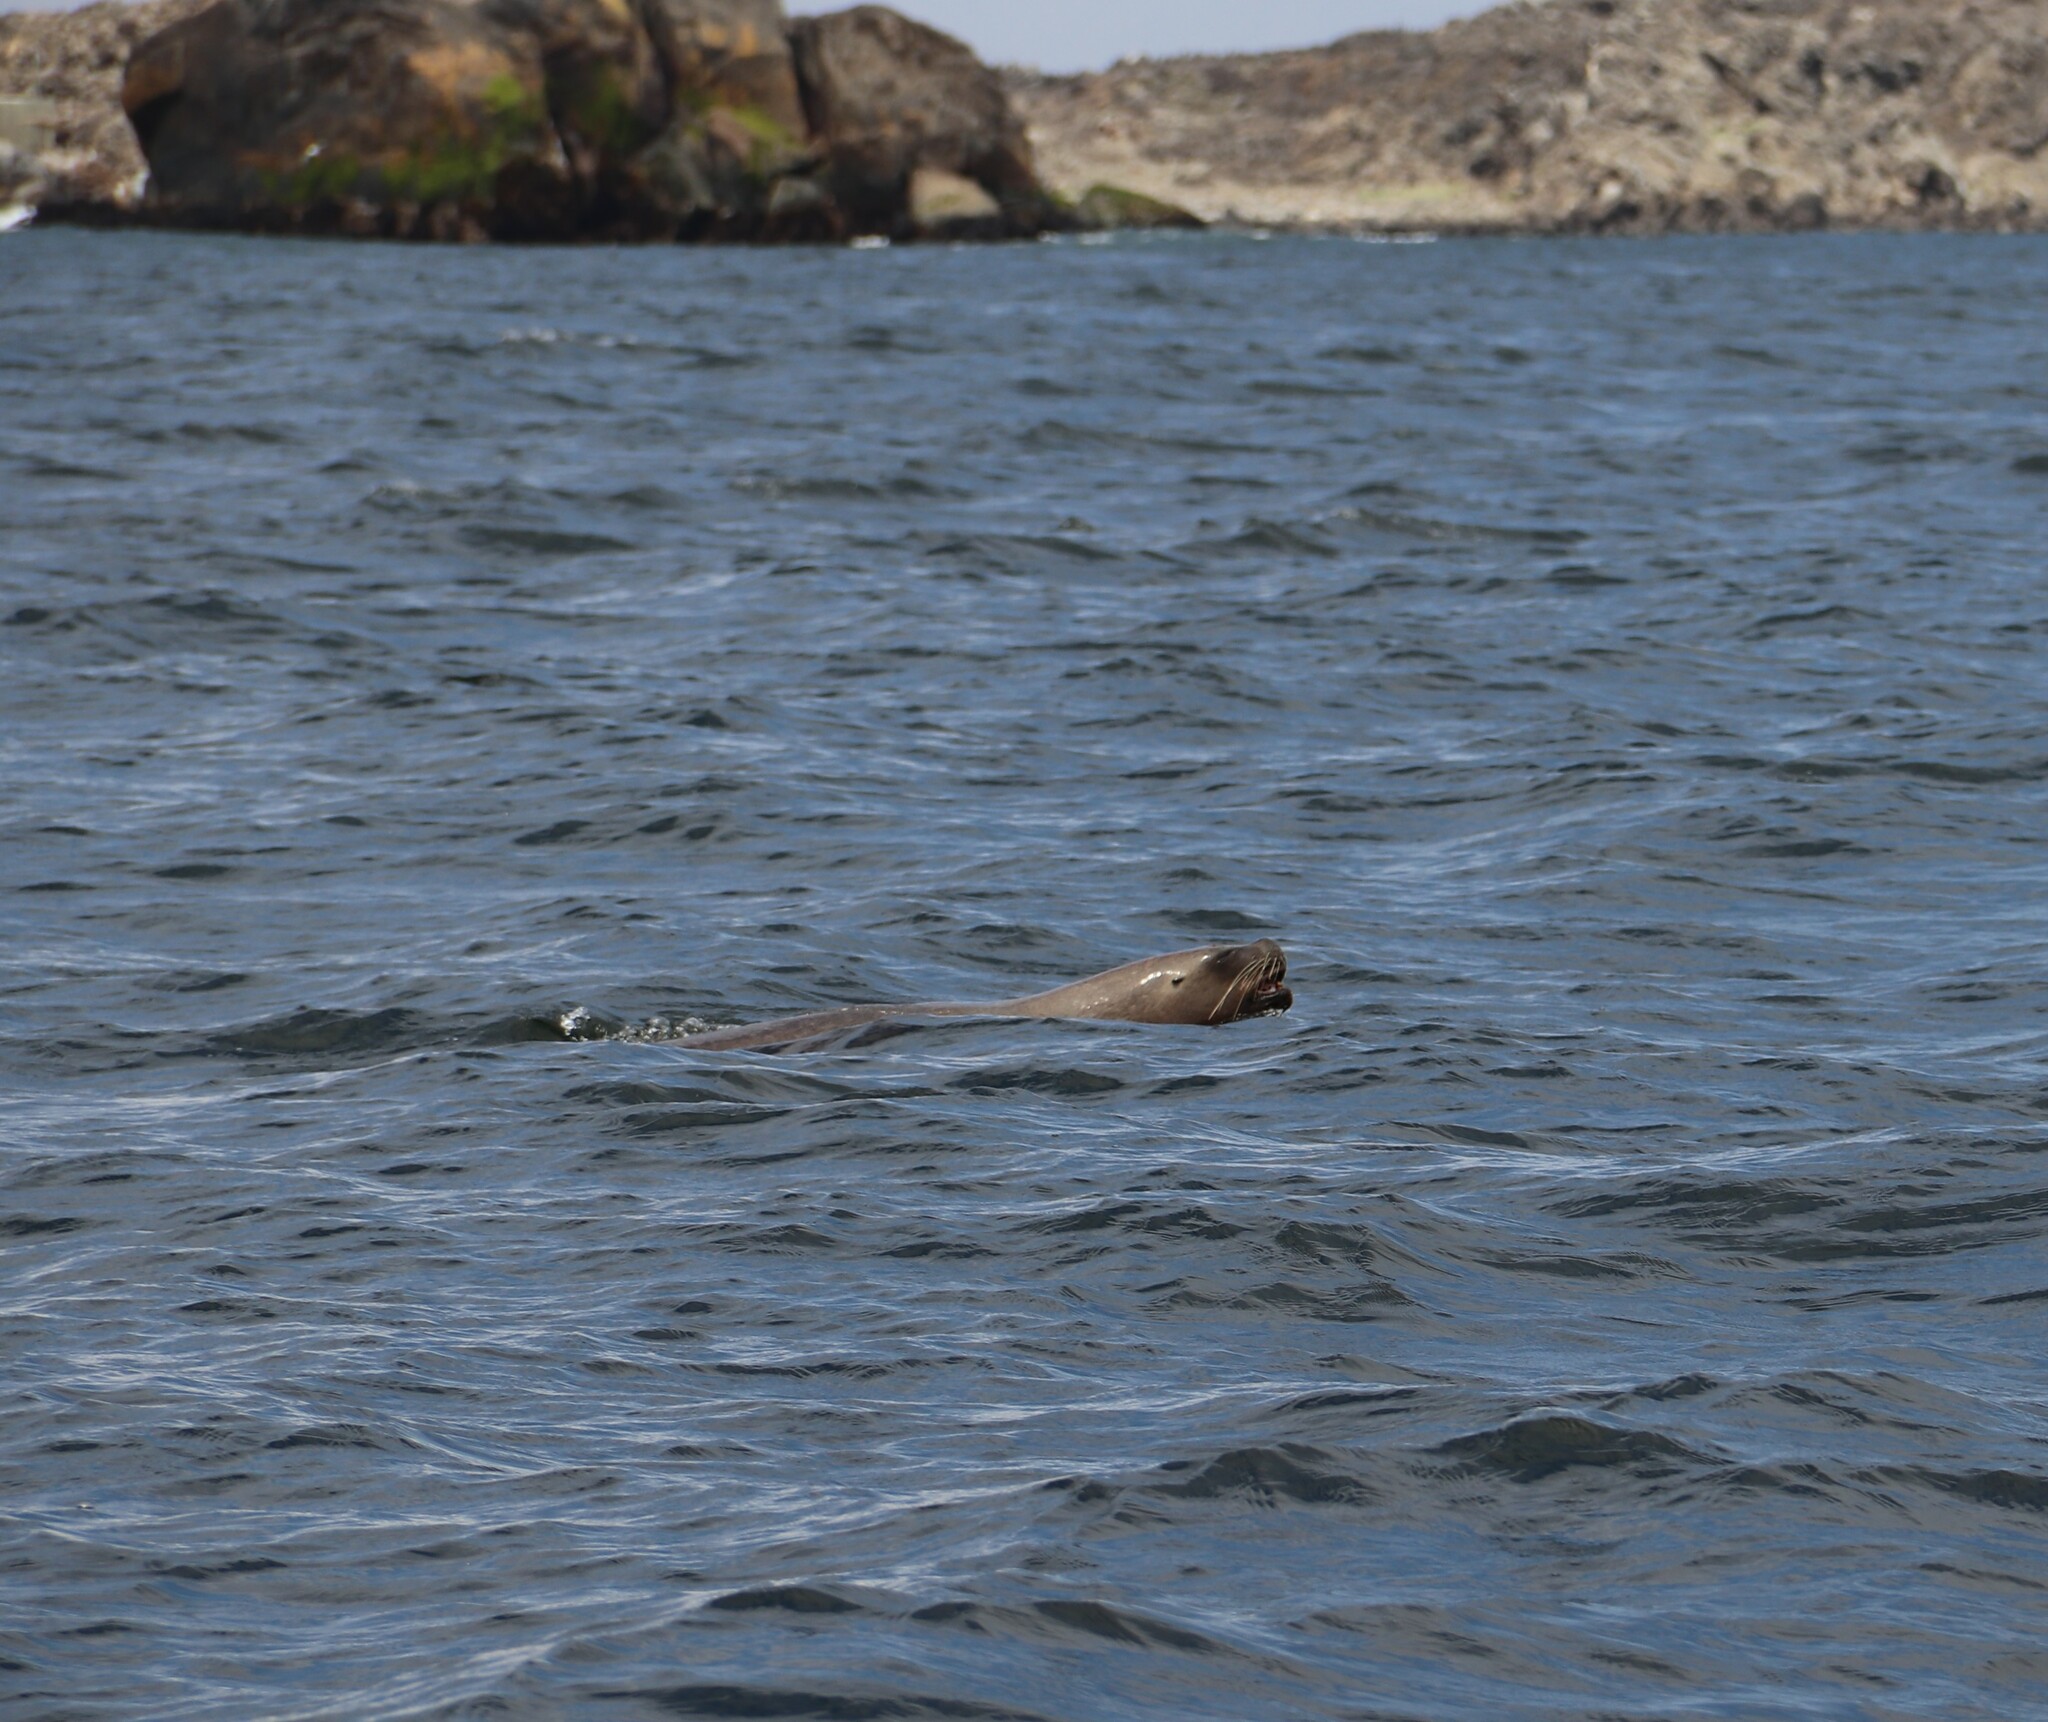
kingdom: Animalia
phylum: Chordata
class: Mammalia
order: Carnivora
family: Otariidae
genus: Otaria
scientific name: Otaria byronia
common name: South american sea lion
